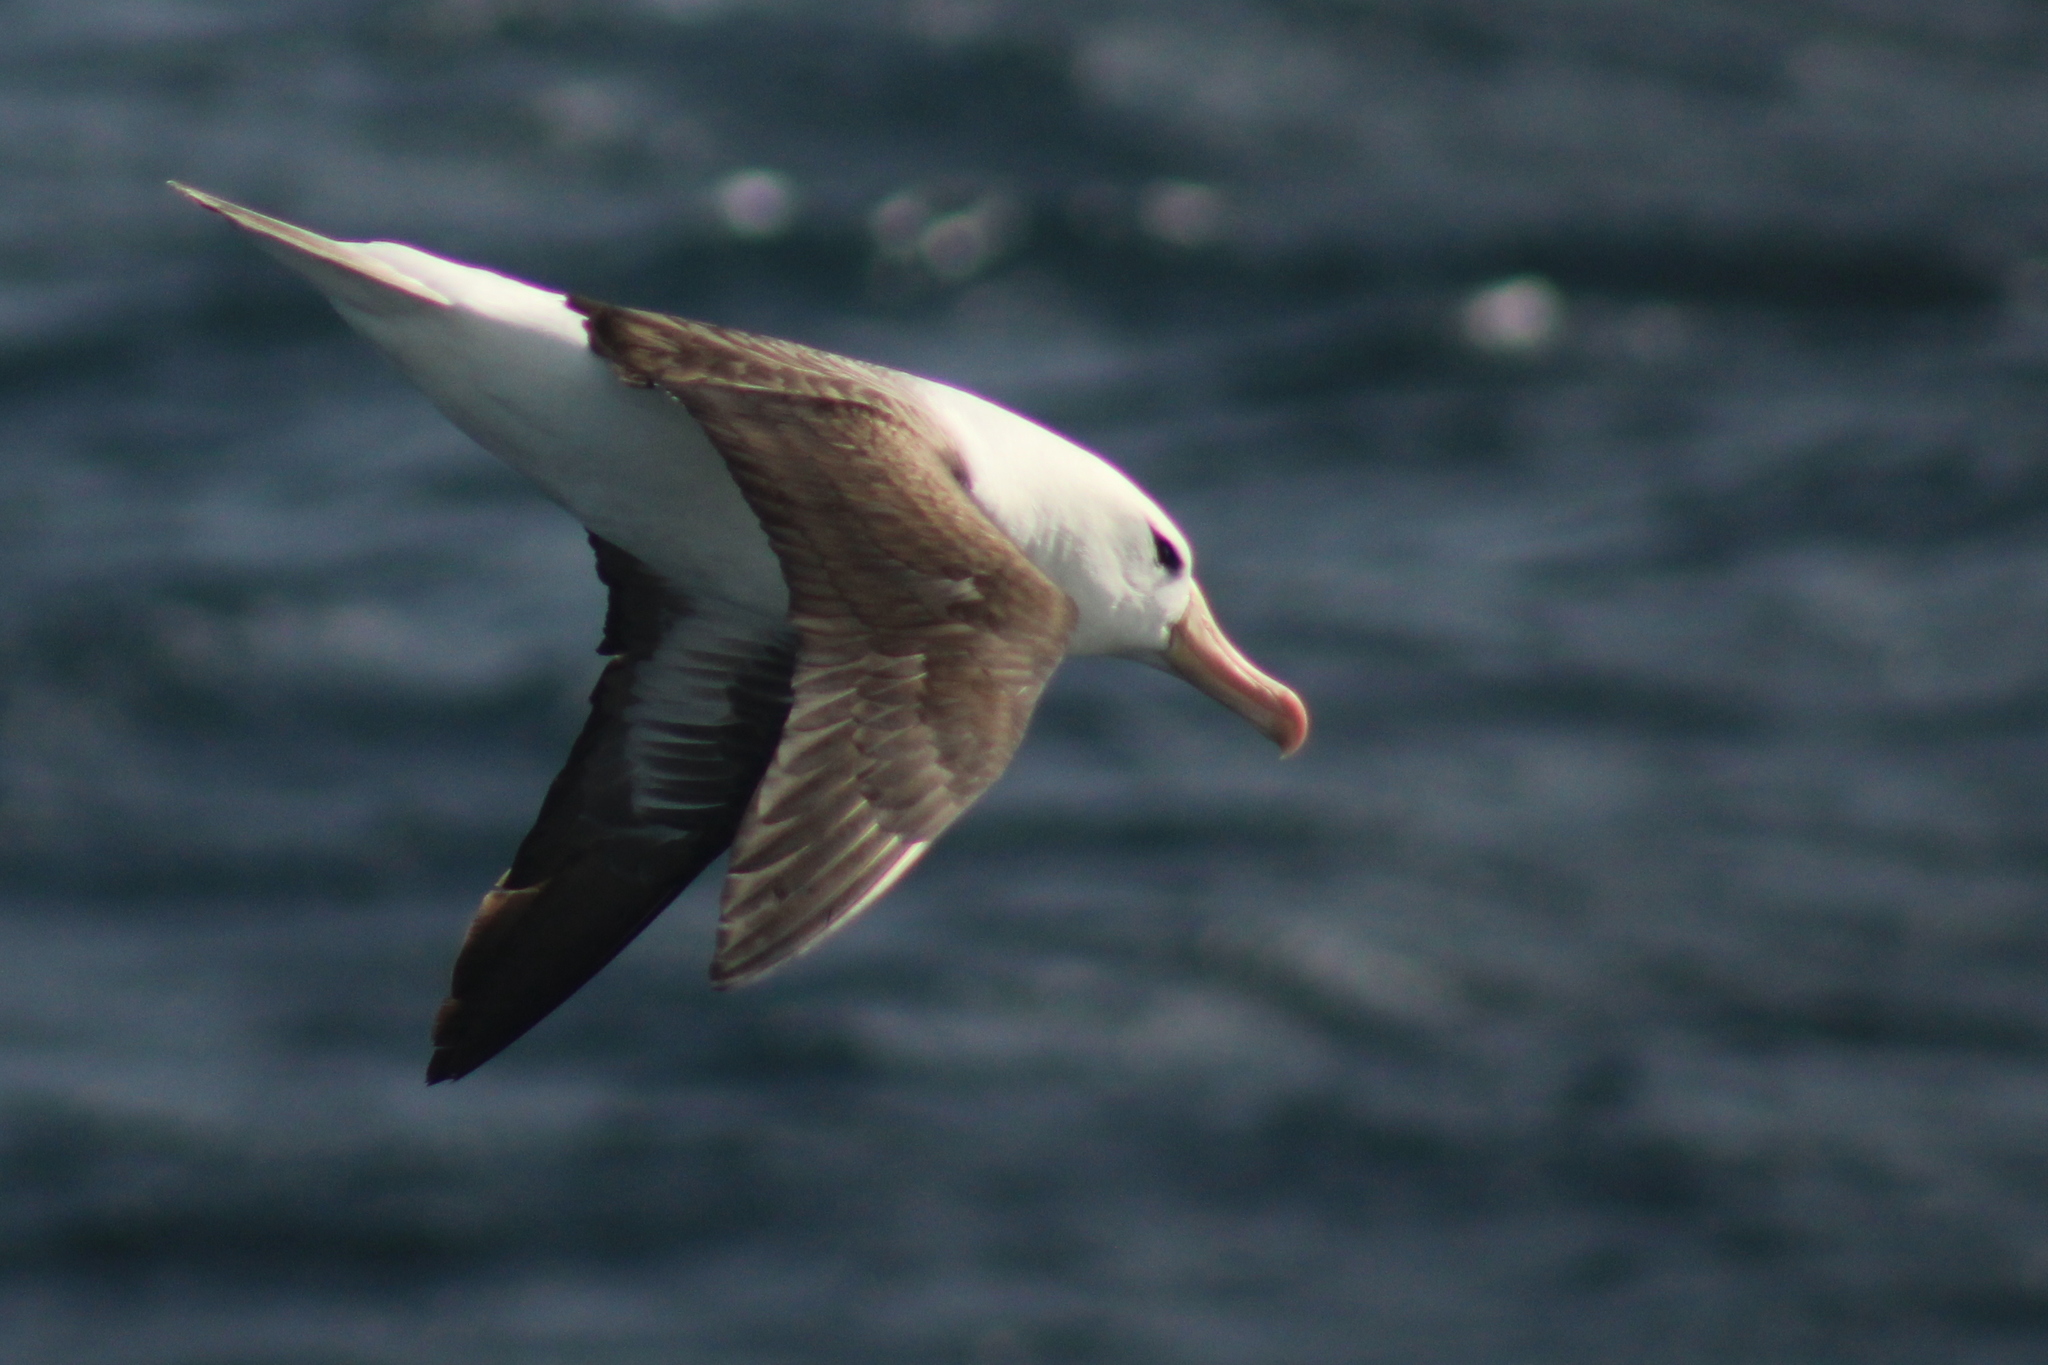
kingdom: Animalia
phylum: Chordata
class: Aves
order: Procellariiformes
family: Diomedeidae
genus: Thalassarche
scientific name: Thalassarche melanophris
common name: Black-browed albatross
